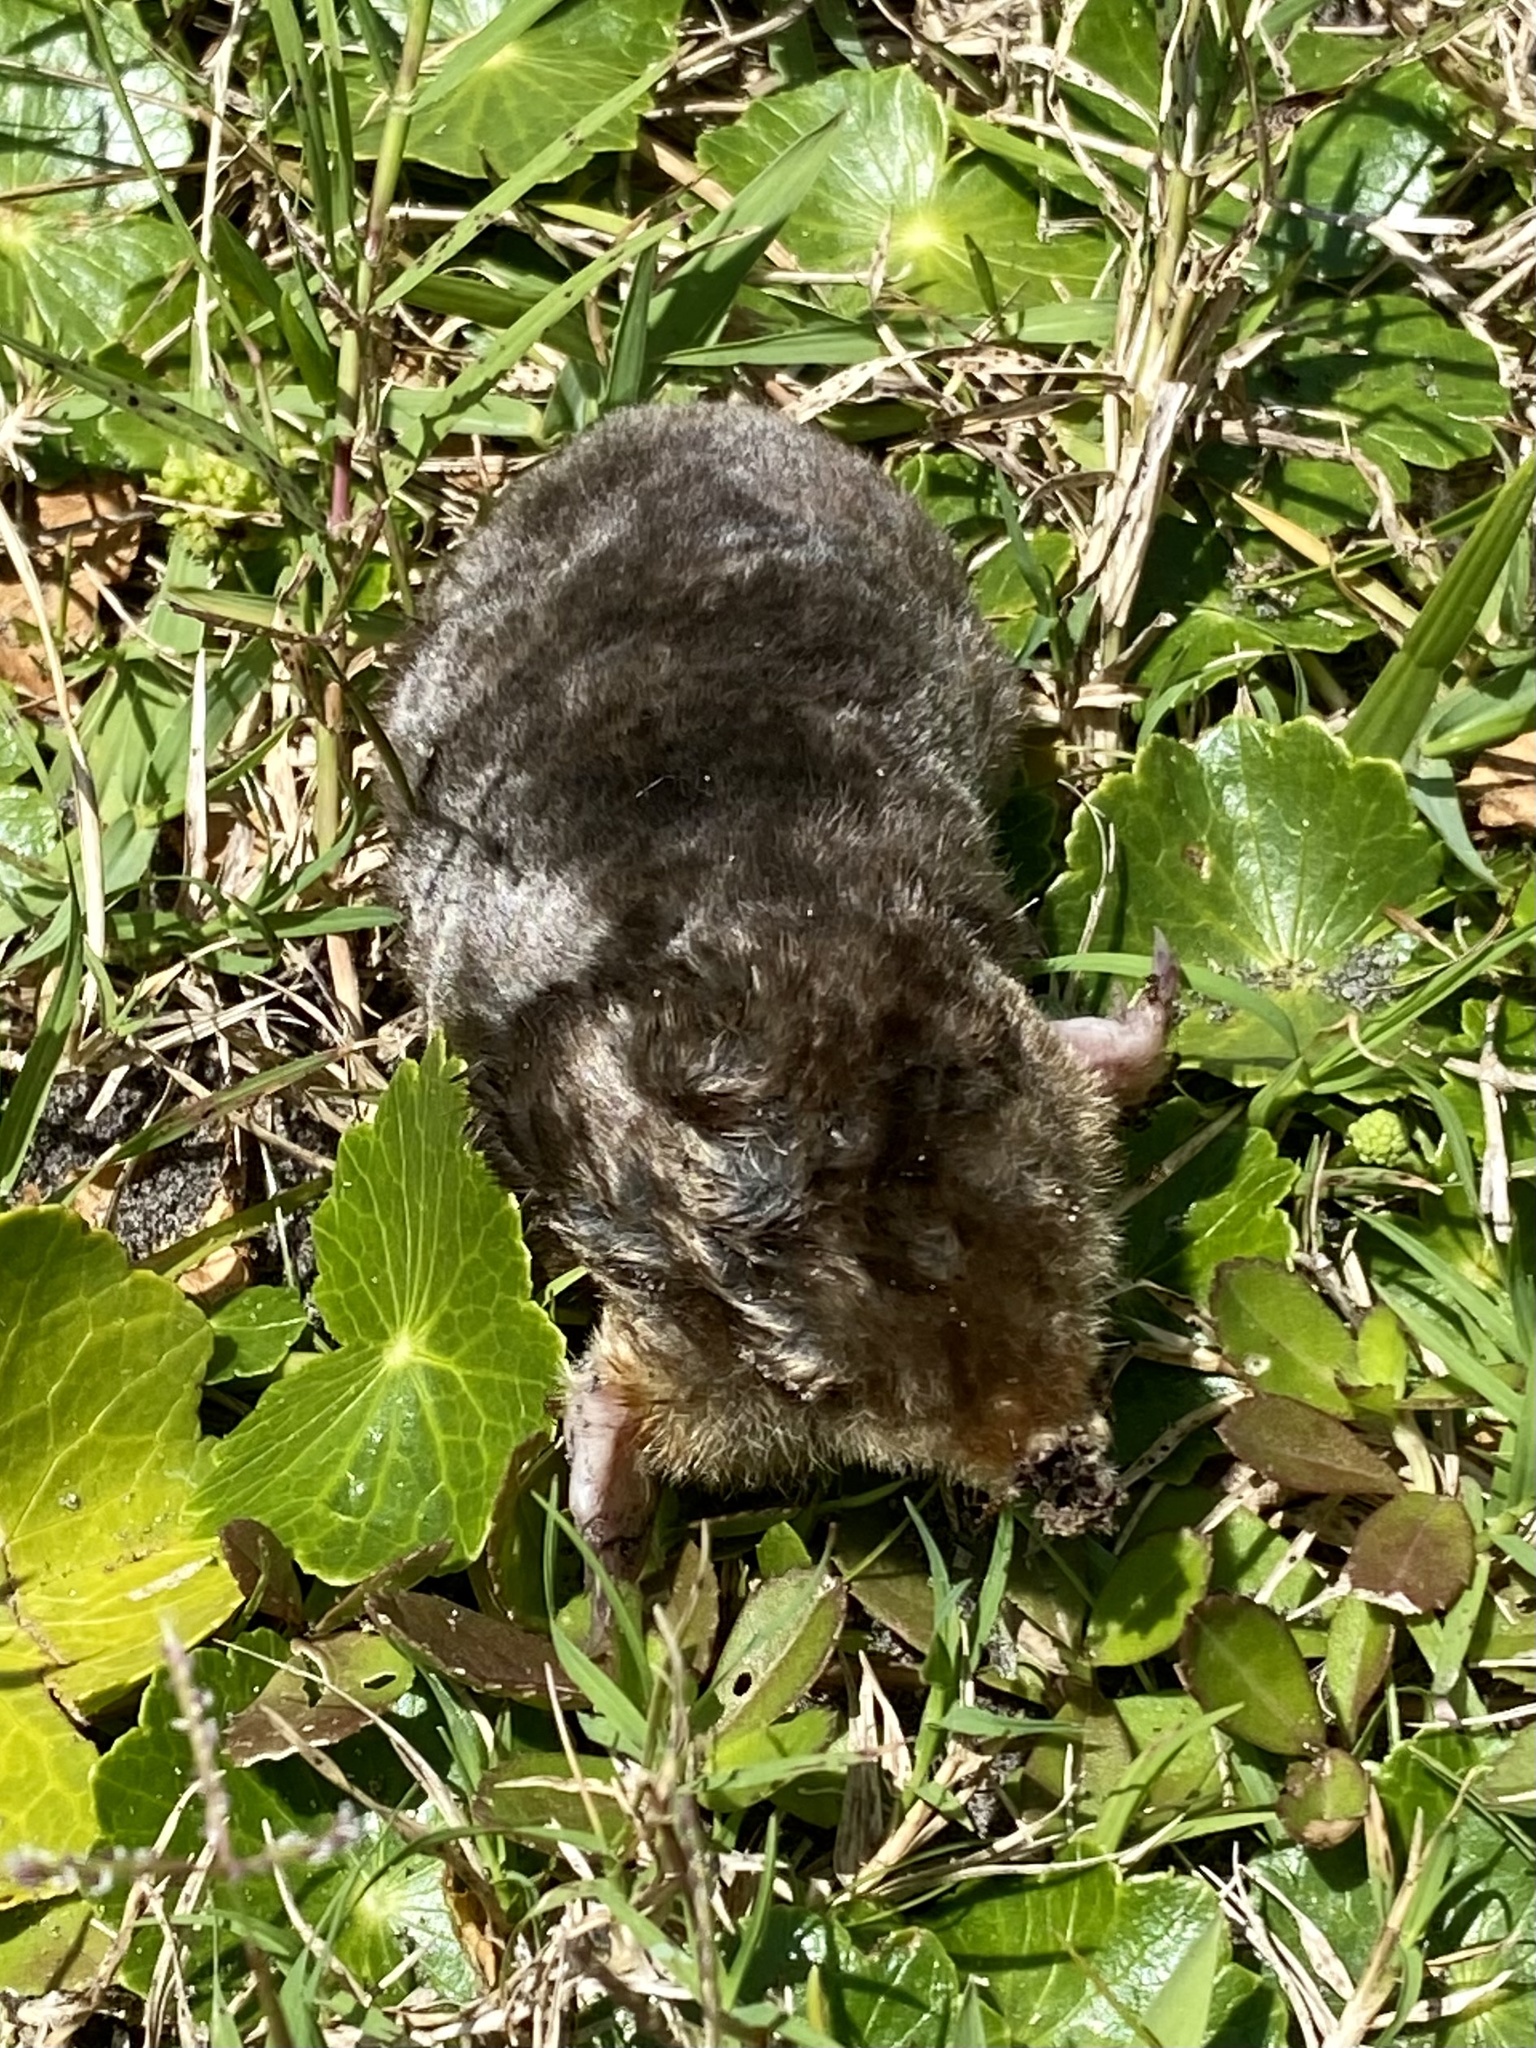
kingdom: Animalia
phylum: Chordata
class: Mammalia
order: Soricomorpha
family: Talpidae
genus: Scalopus
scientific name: Scalopus aquaticus
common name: Eastern mole
